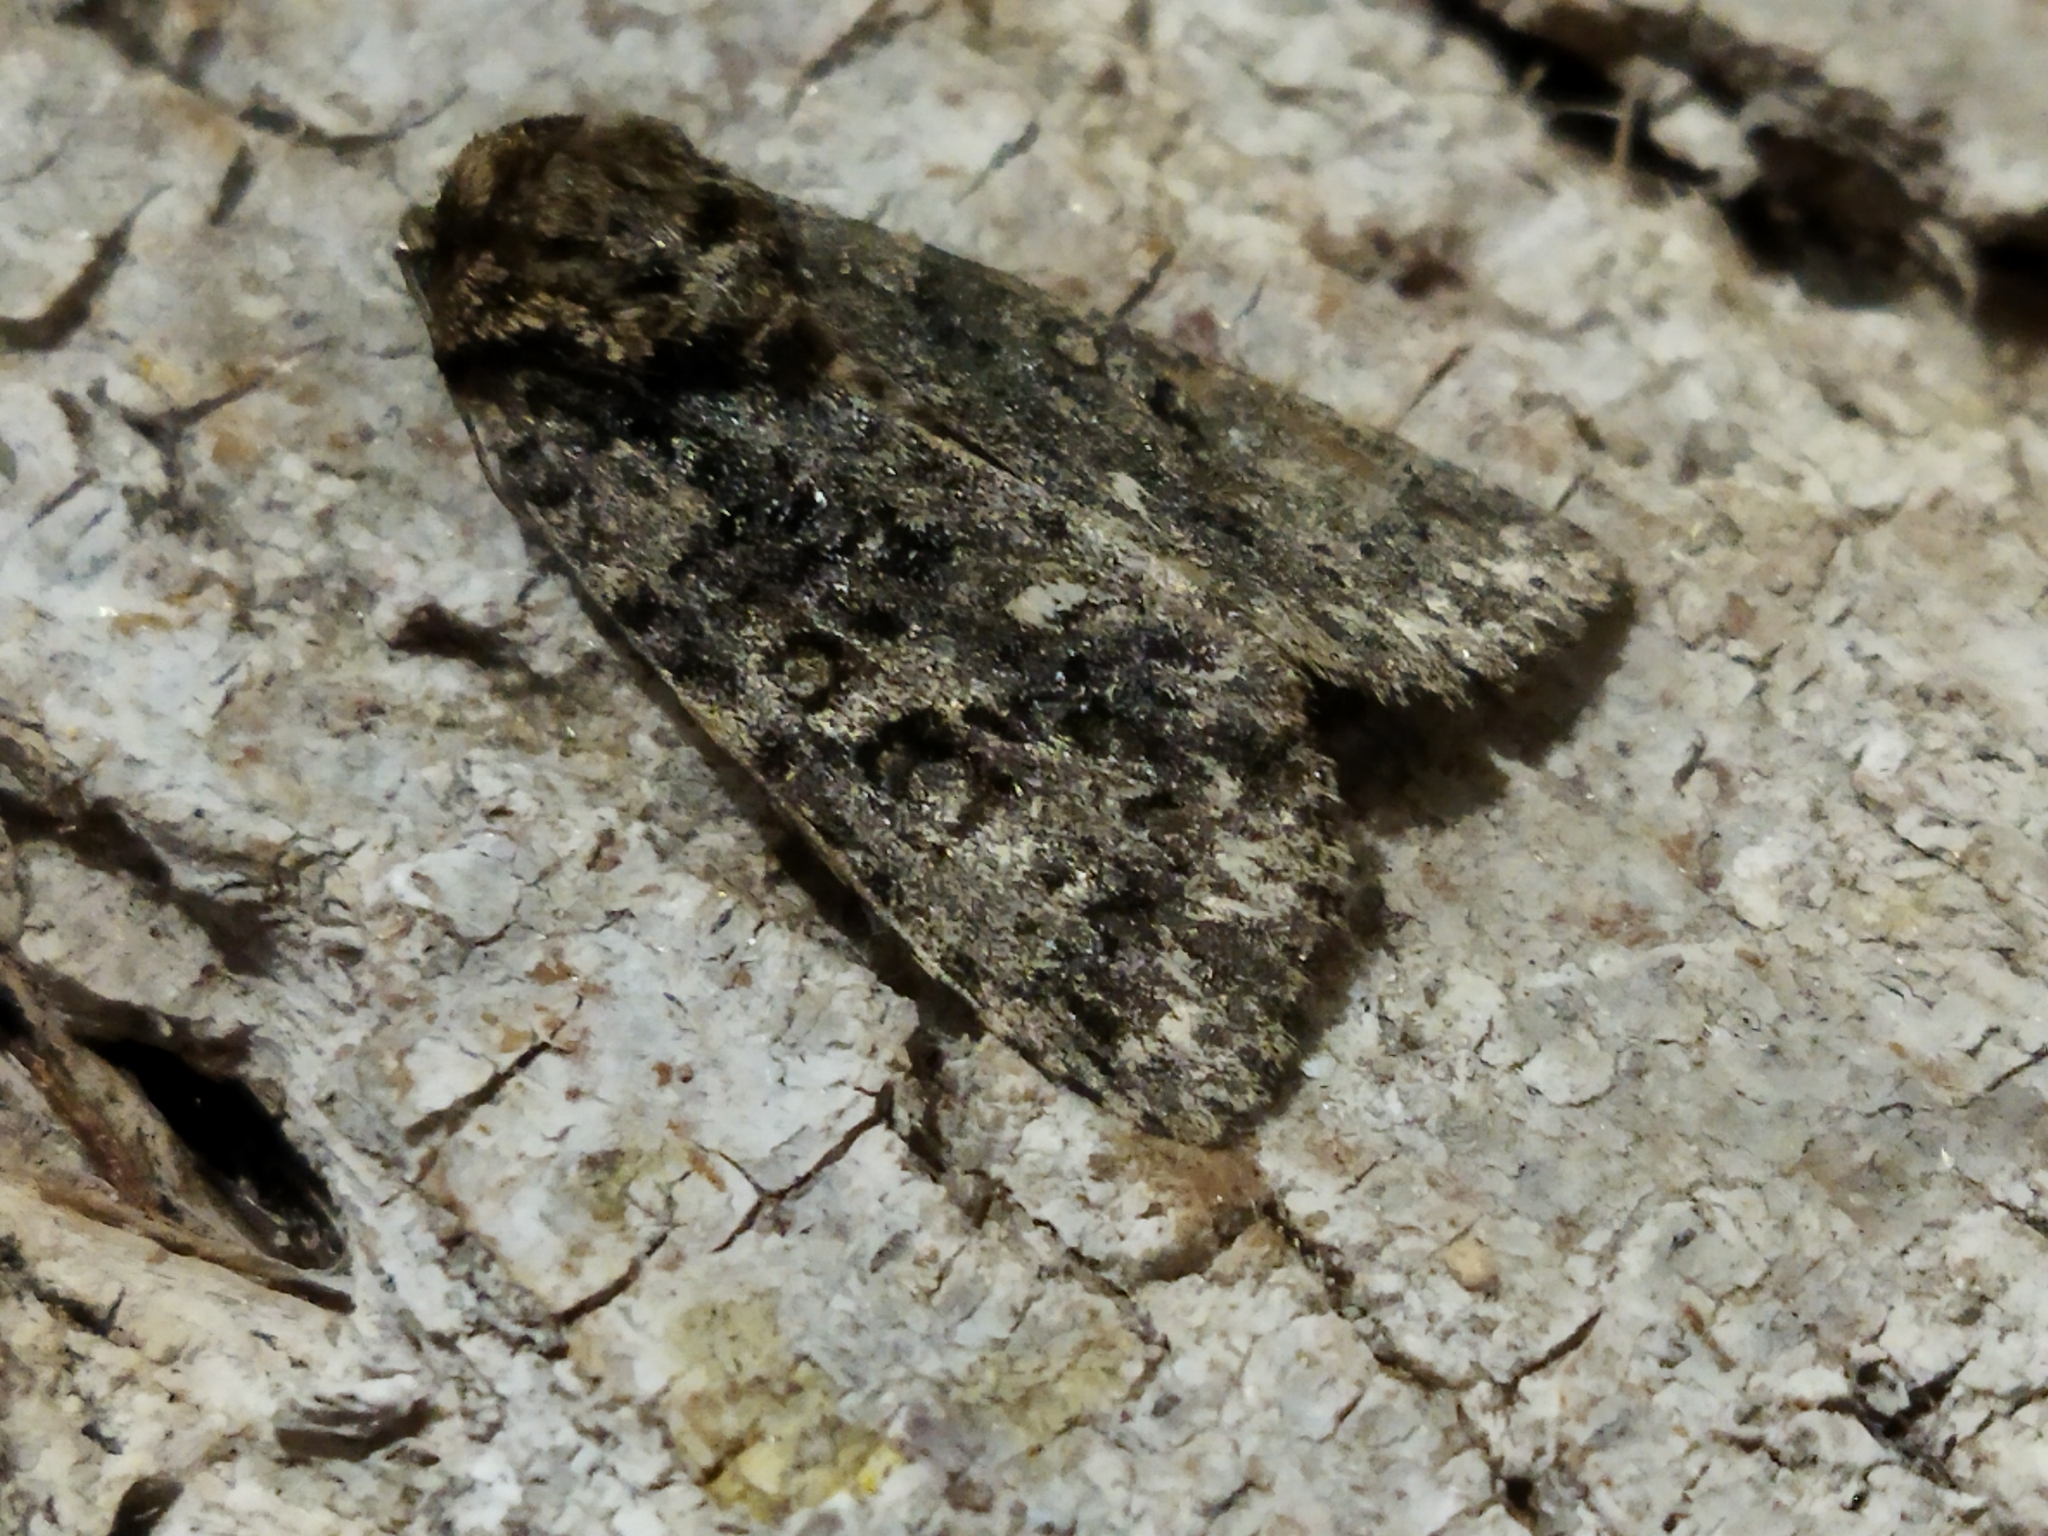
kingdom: Animalia
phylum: Arthropoda
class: Insecta
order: Lepidoptera
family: Noctuidae
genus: Acronicta
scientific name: Acronicta rumicis
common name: Knot grass
